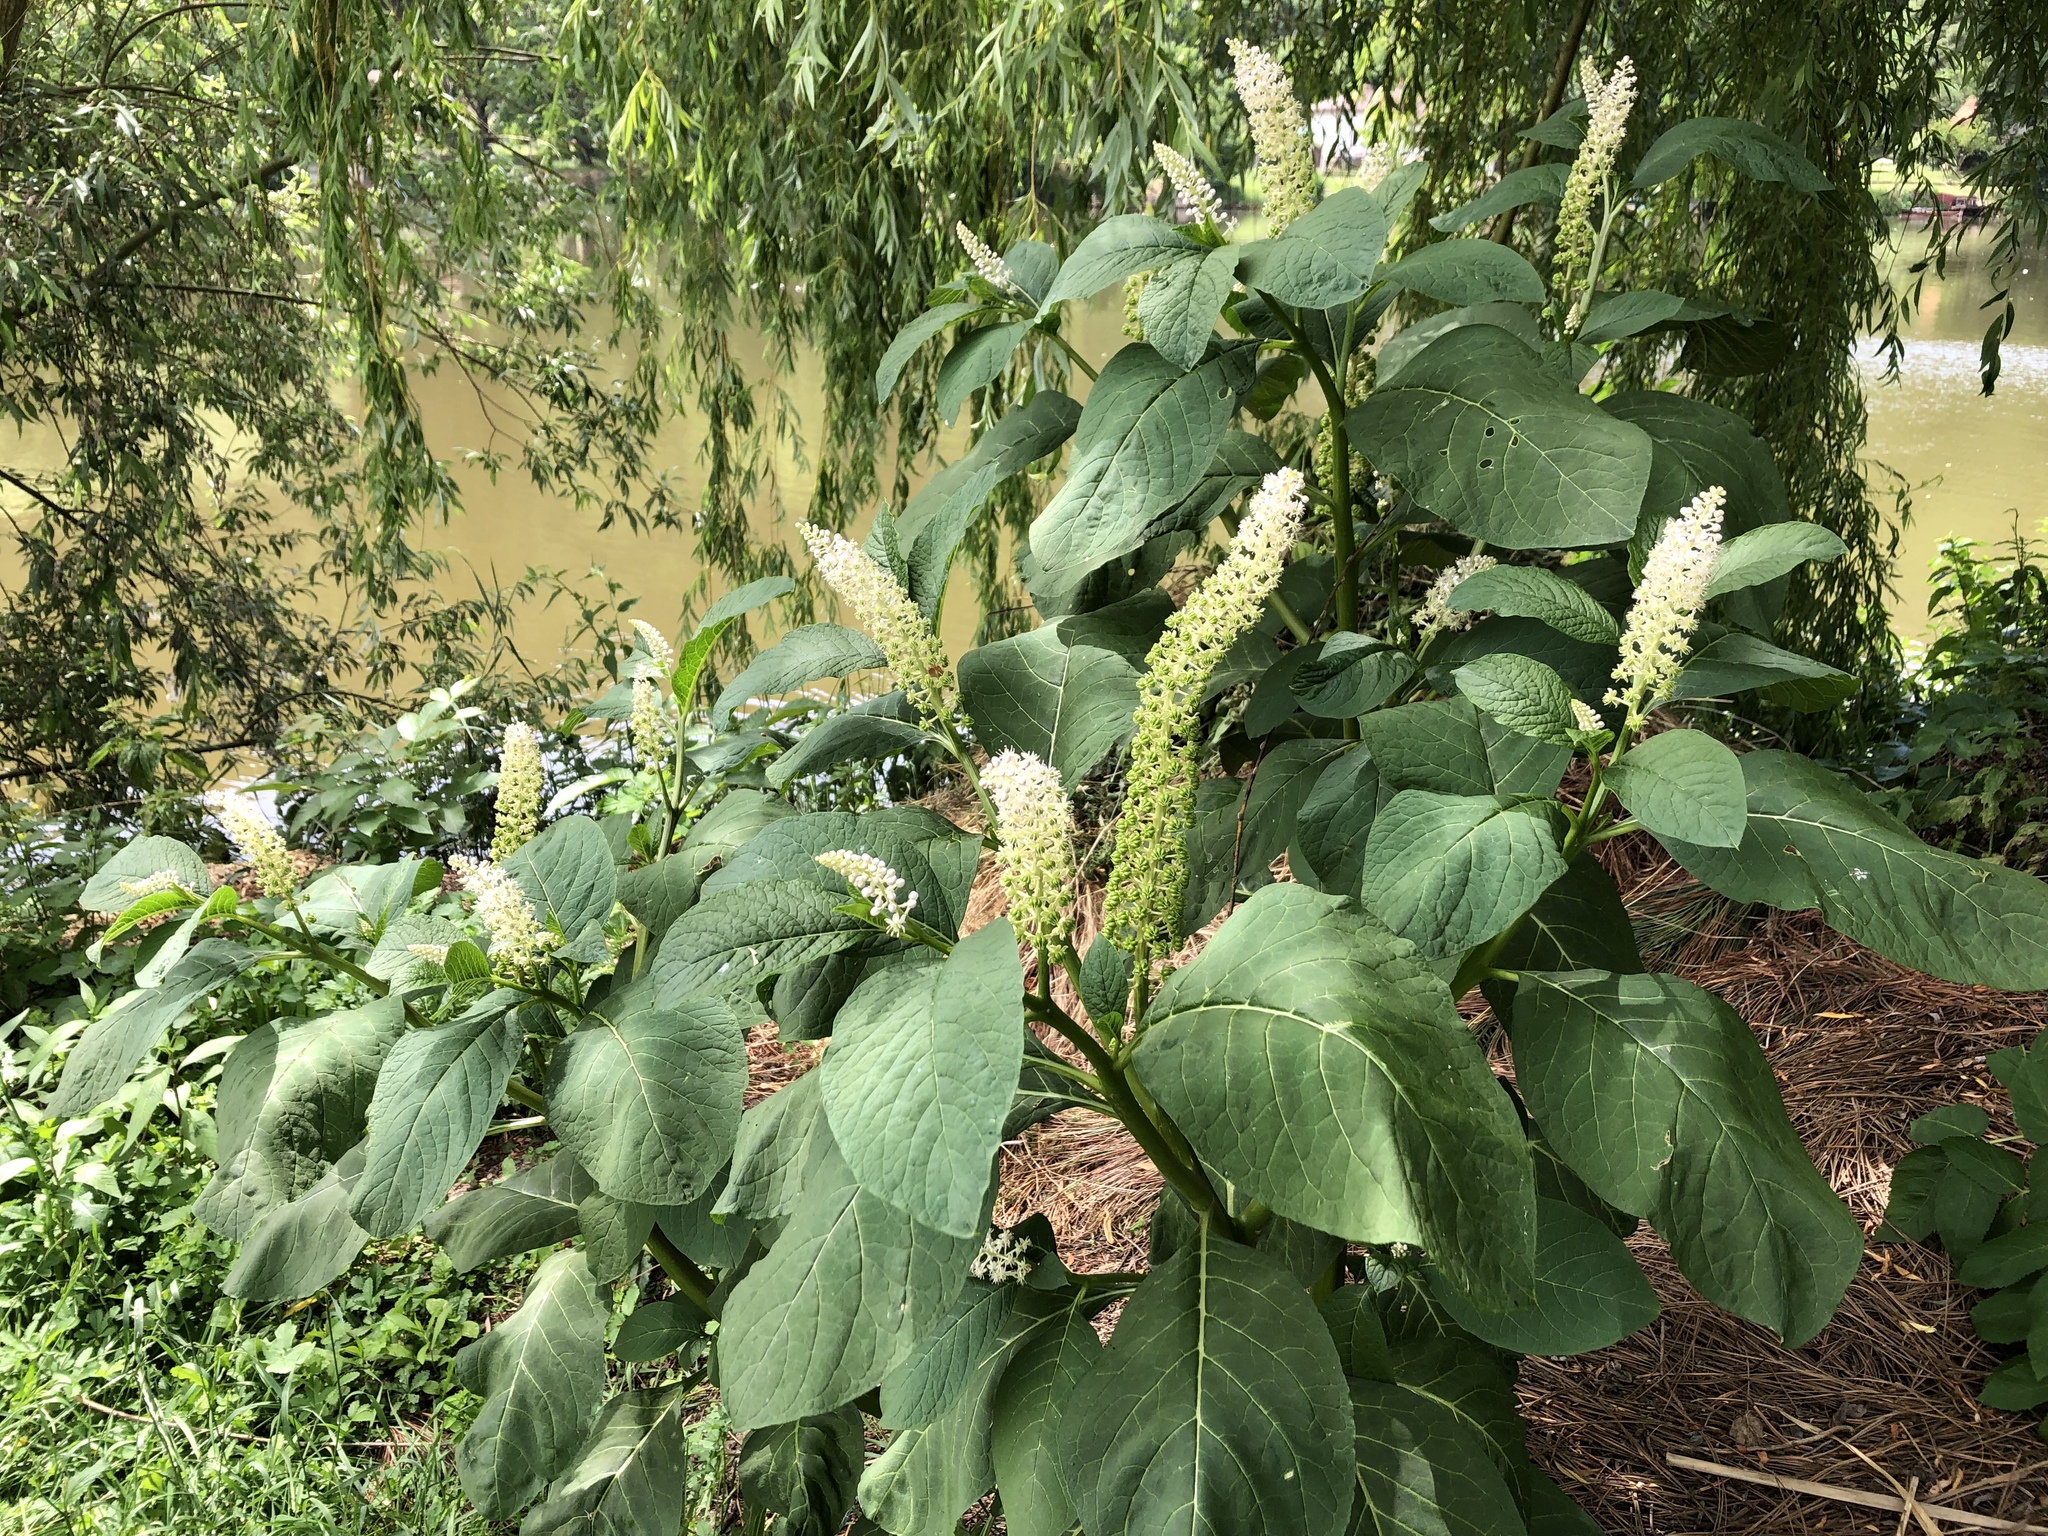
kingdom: Plantae
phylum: Tracheophyta
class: Magnoliopsida
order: Caryophyllales
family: Phytolaccaceae
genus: Phytolacca
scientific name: Phytolacca acinosa
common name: Indian pokeweed
